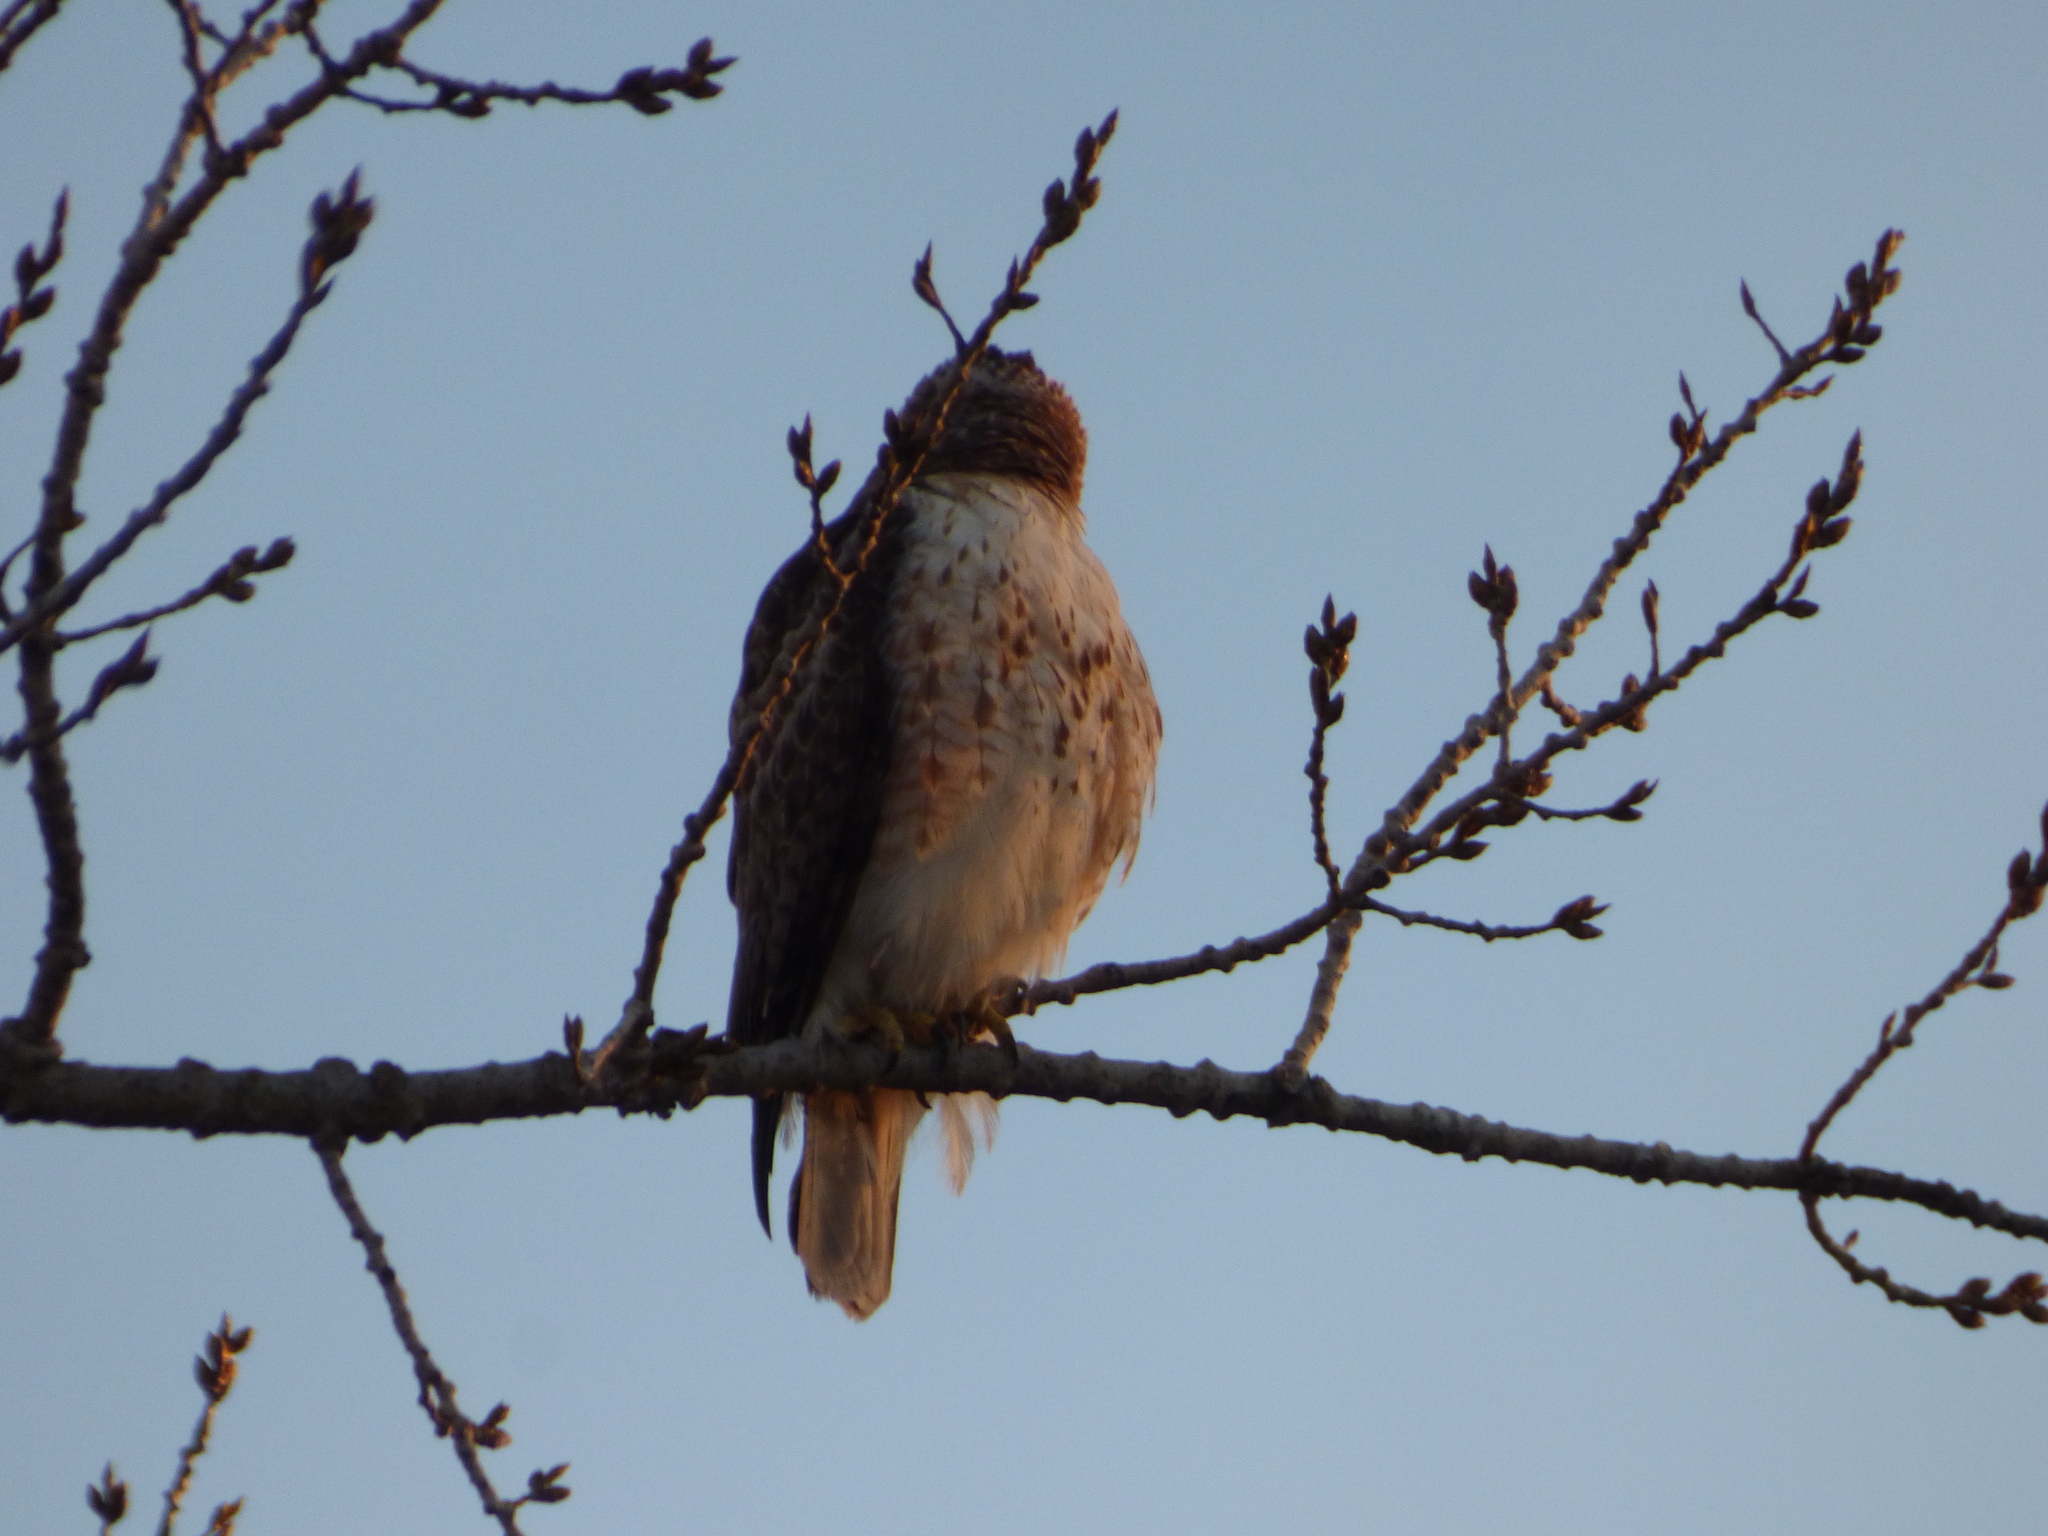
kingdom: Animalia
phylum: Chordata
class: Aves
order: Accipitriformes
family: Accipitridae
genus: Buteo
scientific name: Buteo jamaicensis
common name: Red-tailed hawk
